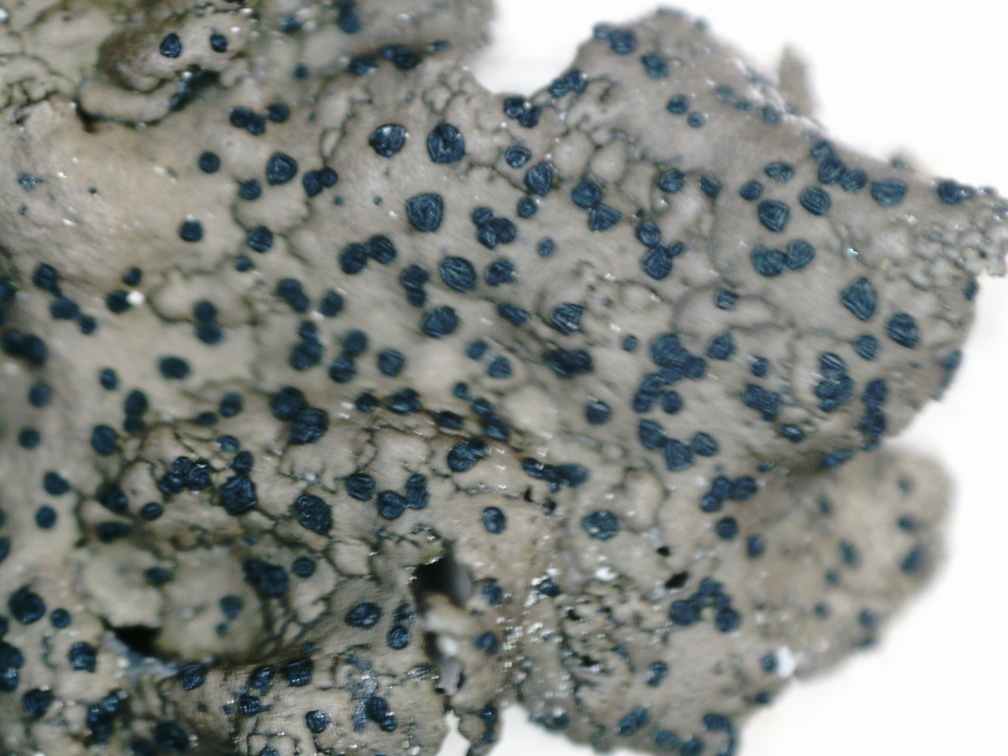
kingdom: Fungi
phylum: Ascomycota
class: Lecanoromycetes
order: Umbilicariales
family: Umbilicariaceae
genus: Umbilicaria
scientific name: Umbilicaria torrefacta
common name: Punctured rock tripe lichen
